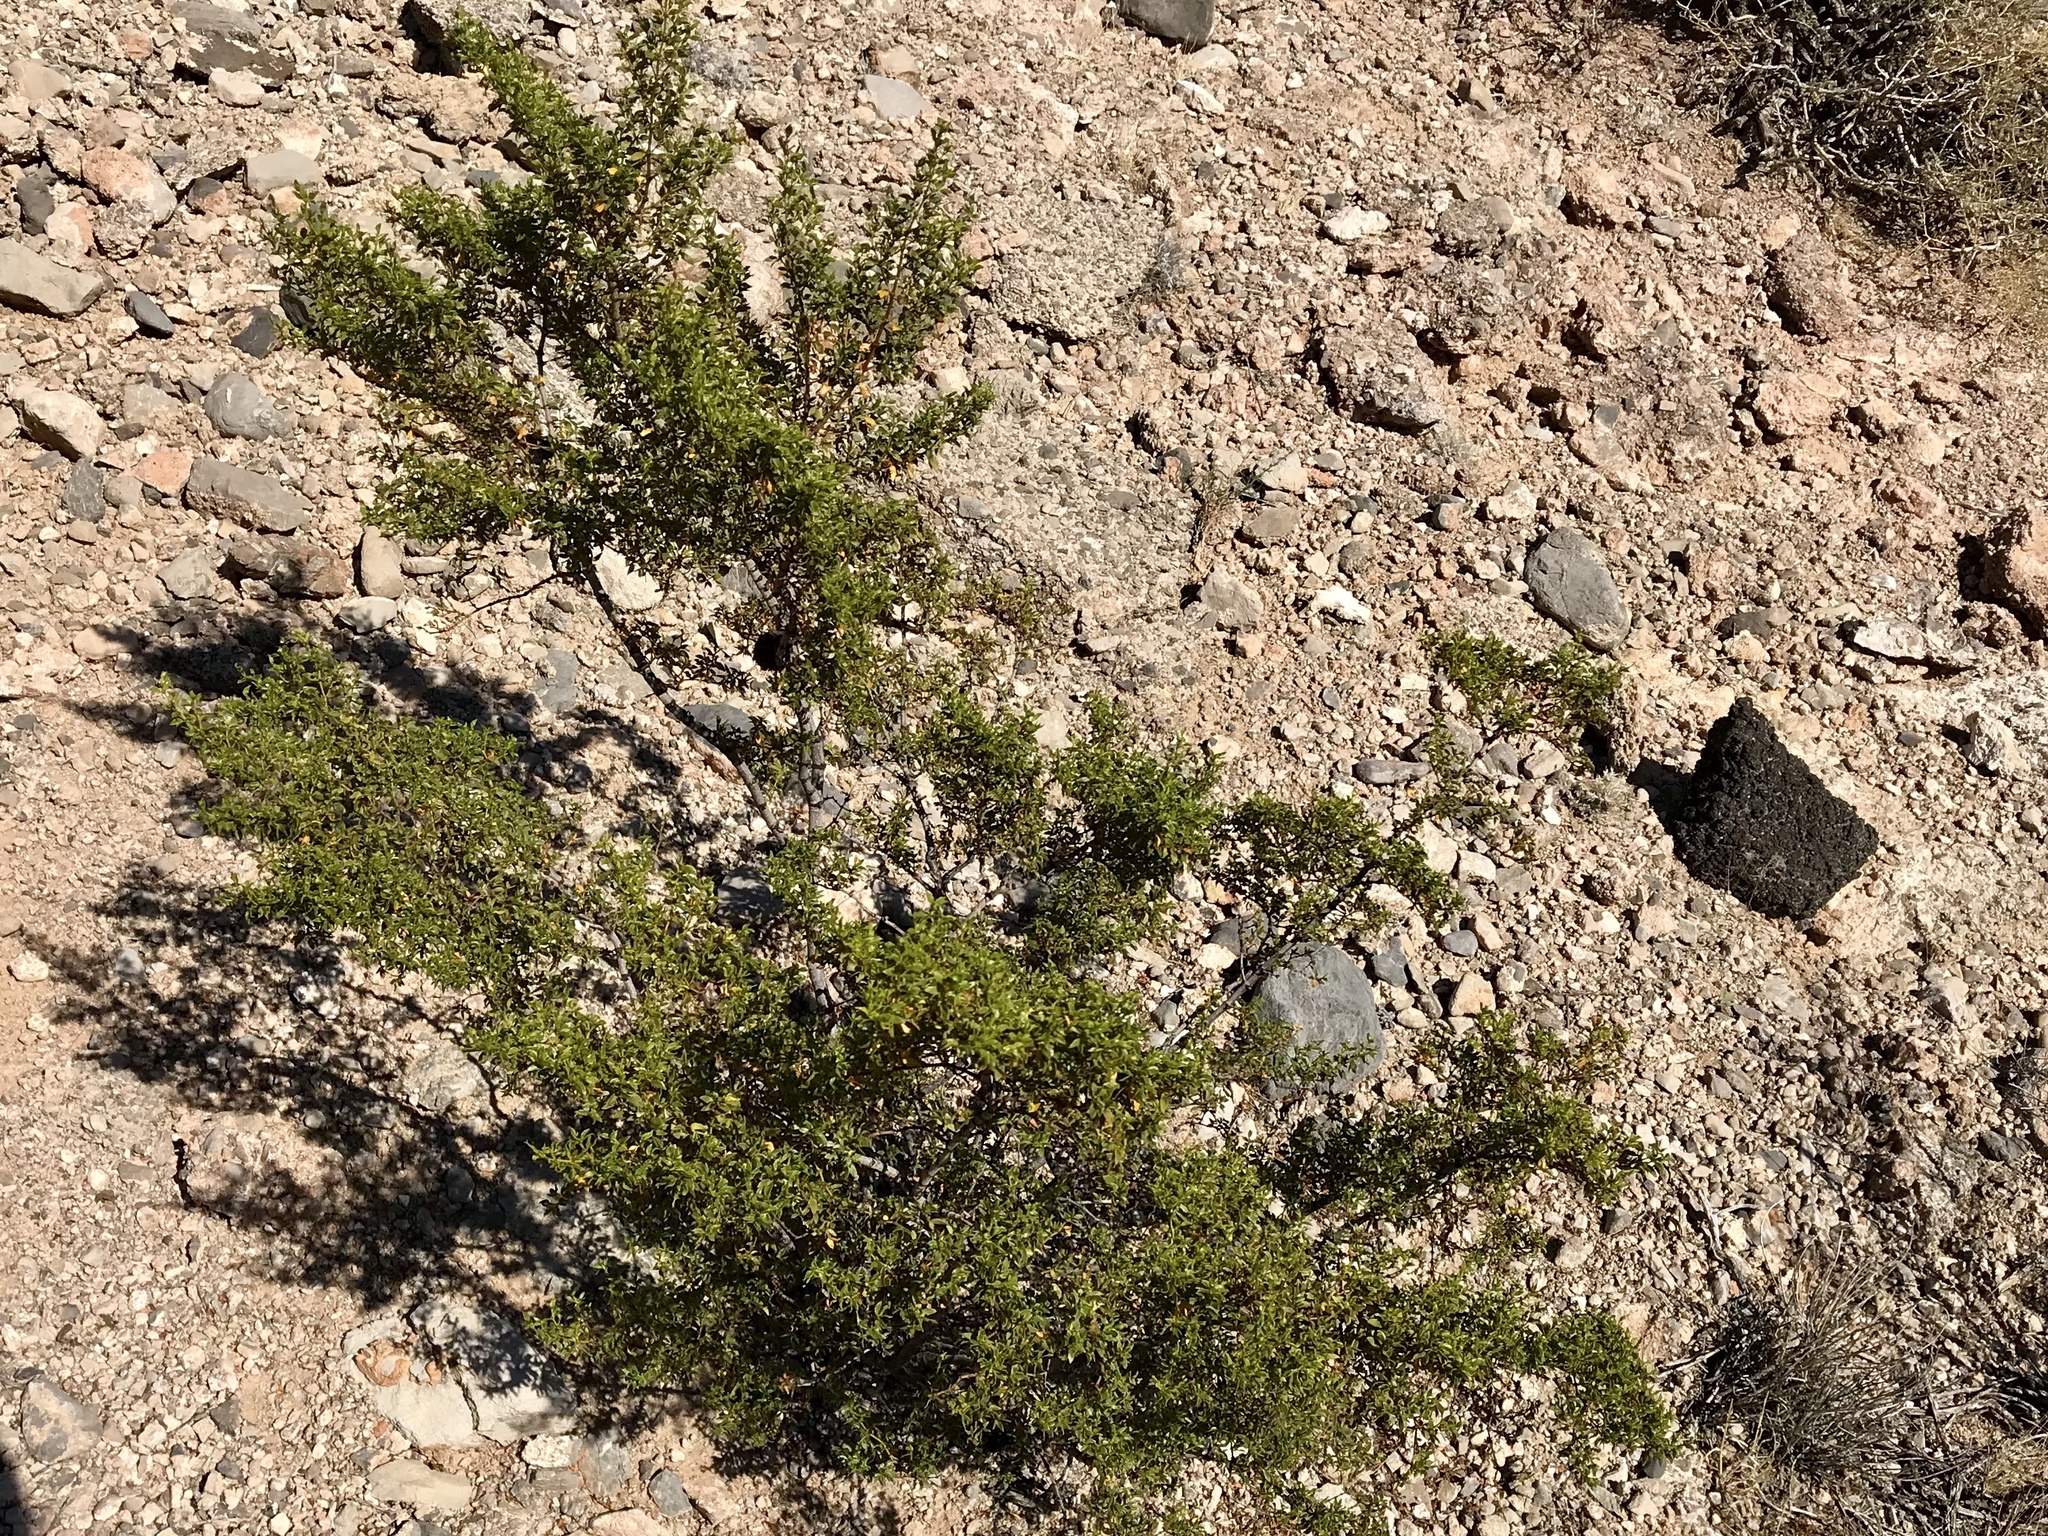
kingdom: Plantae
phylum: Tracheophyta
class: Magnoliopsida
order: Zygophyllales
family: Zygophyllaceae
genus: Larrea
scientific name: Larrea tridentata
